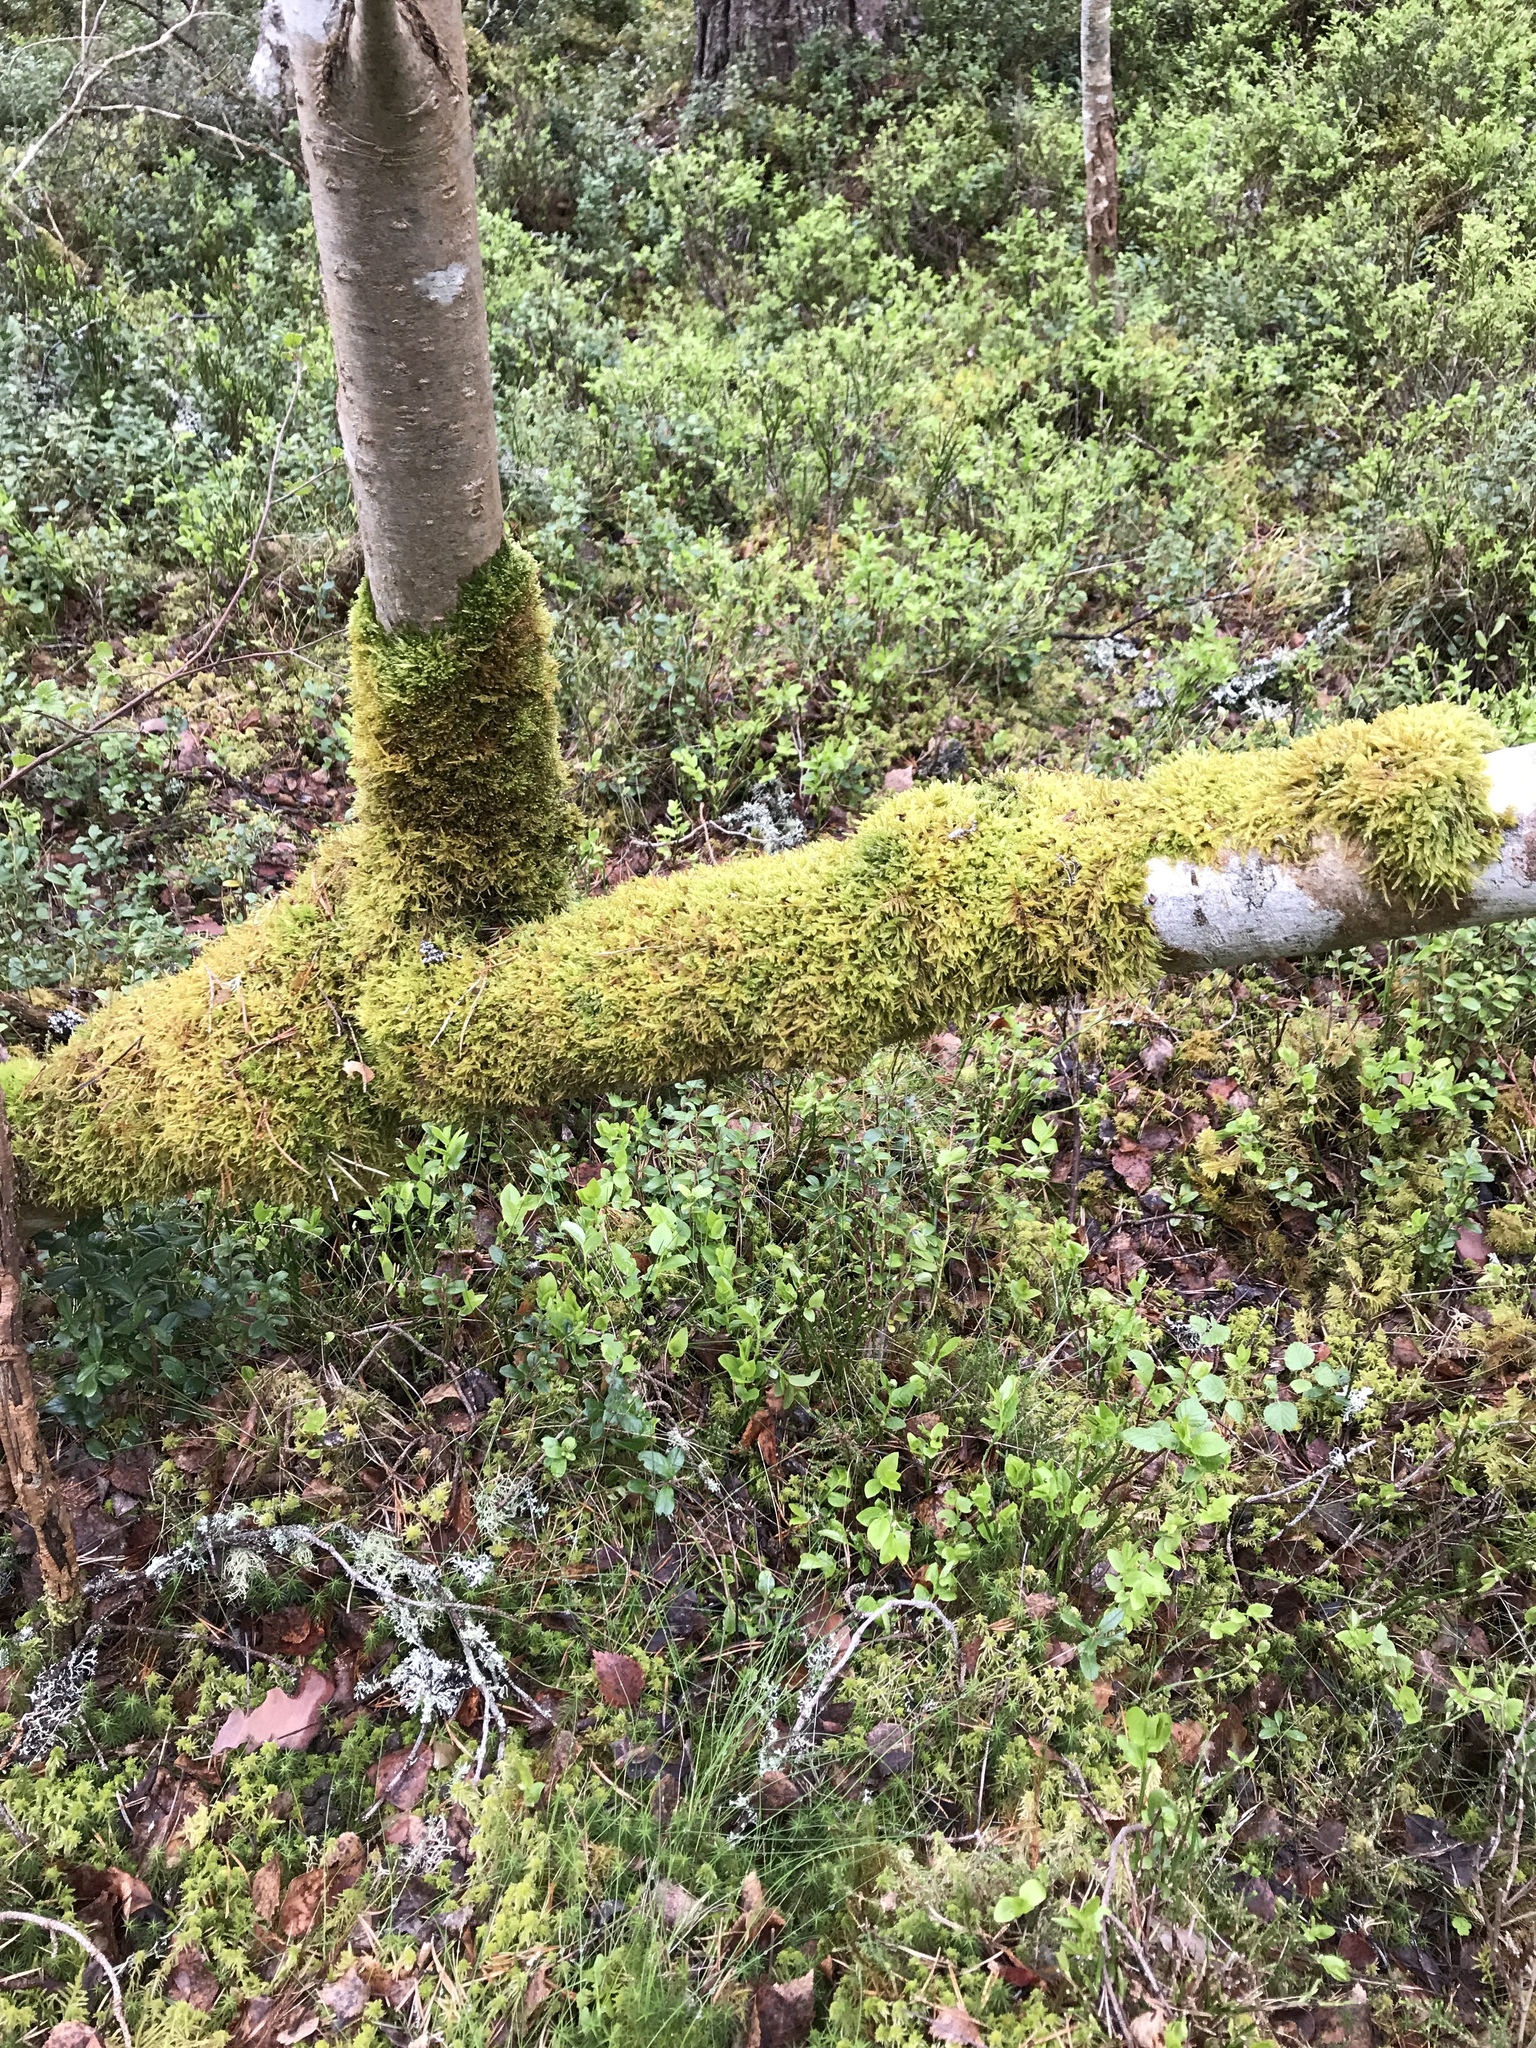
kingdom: Plantae
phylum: Bryophyta
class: Bryopsida
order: Hypnales
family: Hypnaceae
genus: Hypnum
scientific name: Hypnum cupressiforme
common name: Cypress-leaved plait-moss
